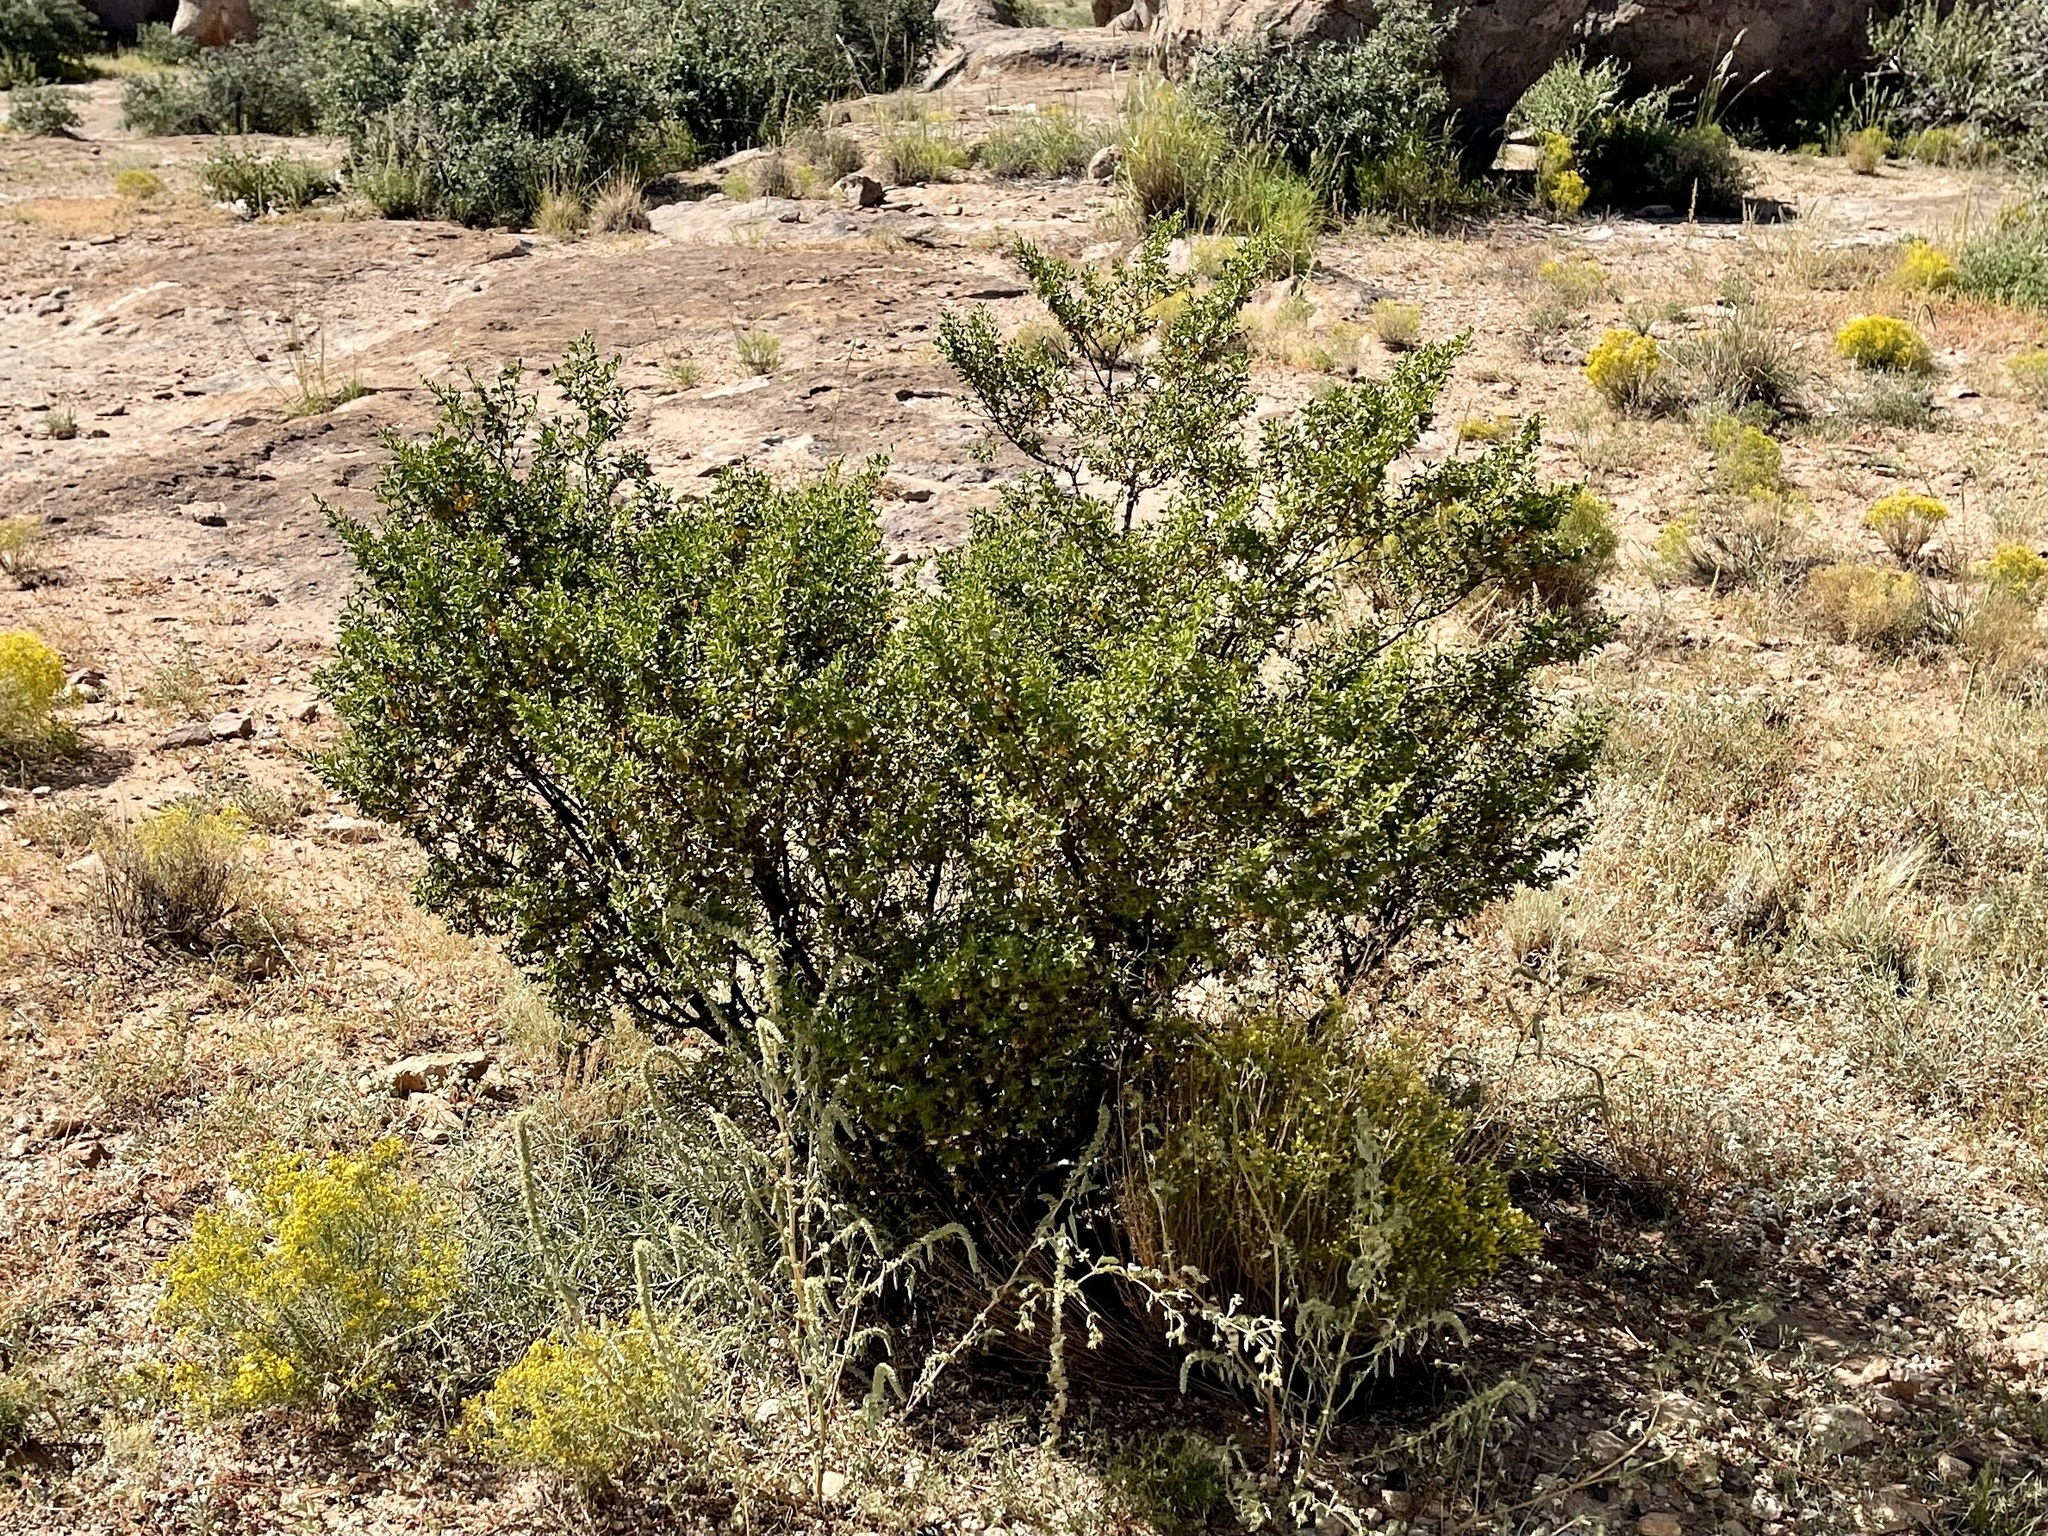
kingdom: Plantae
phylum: Tracheophyta
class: Magnoliopsida
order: Zygophyllales
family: Zygophyllaceae
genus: Larrea
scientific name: Larrea tridentata
